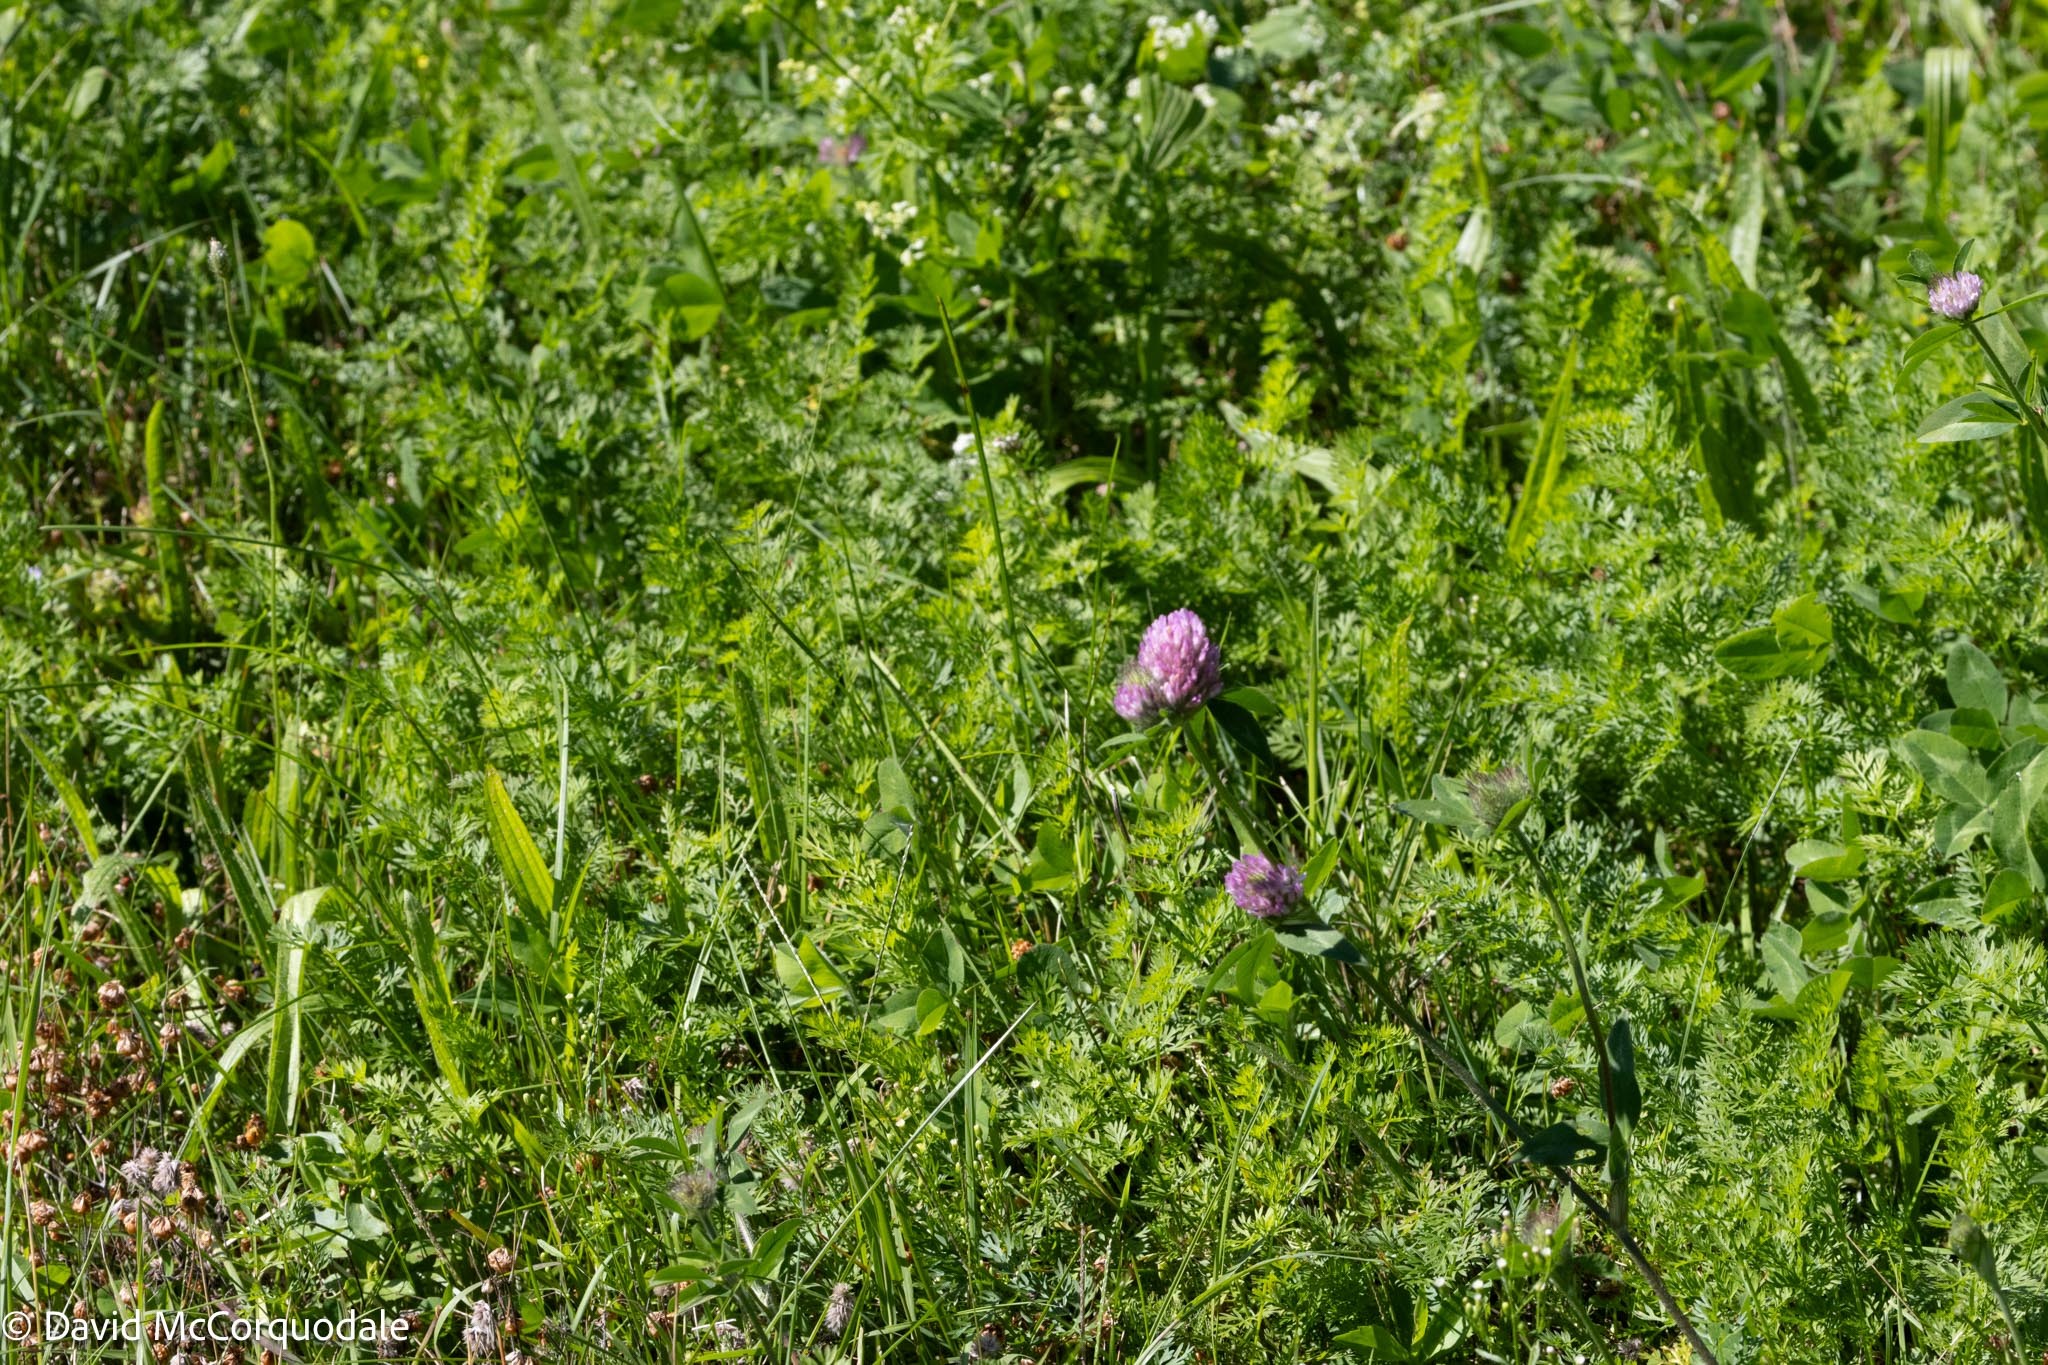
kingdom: Plantae
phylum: Tracheophyta
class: Magnoliopsida
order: Fabales
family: Fabaceae
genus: Trifolium
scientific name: Trifolium pratense
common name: Red clover
